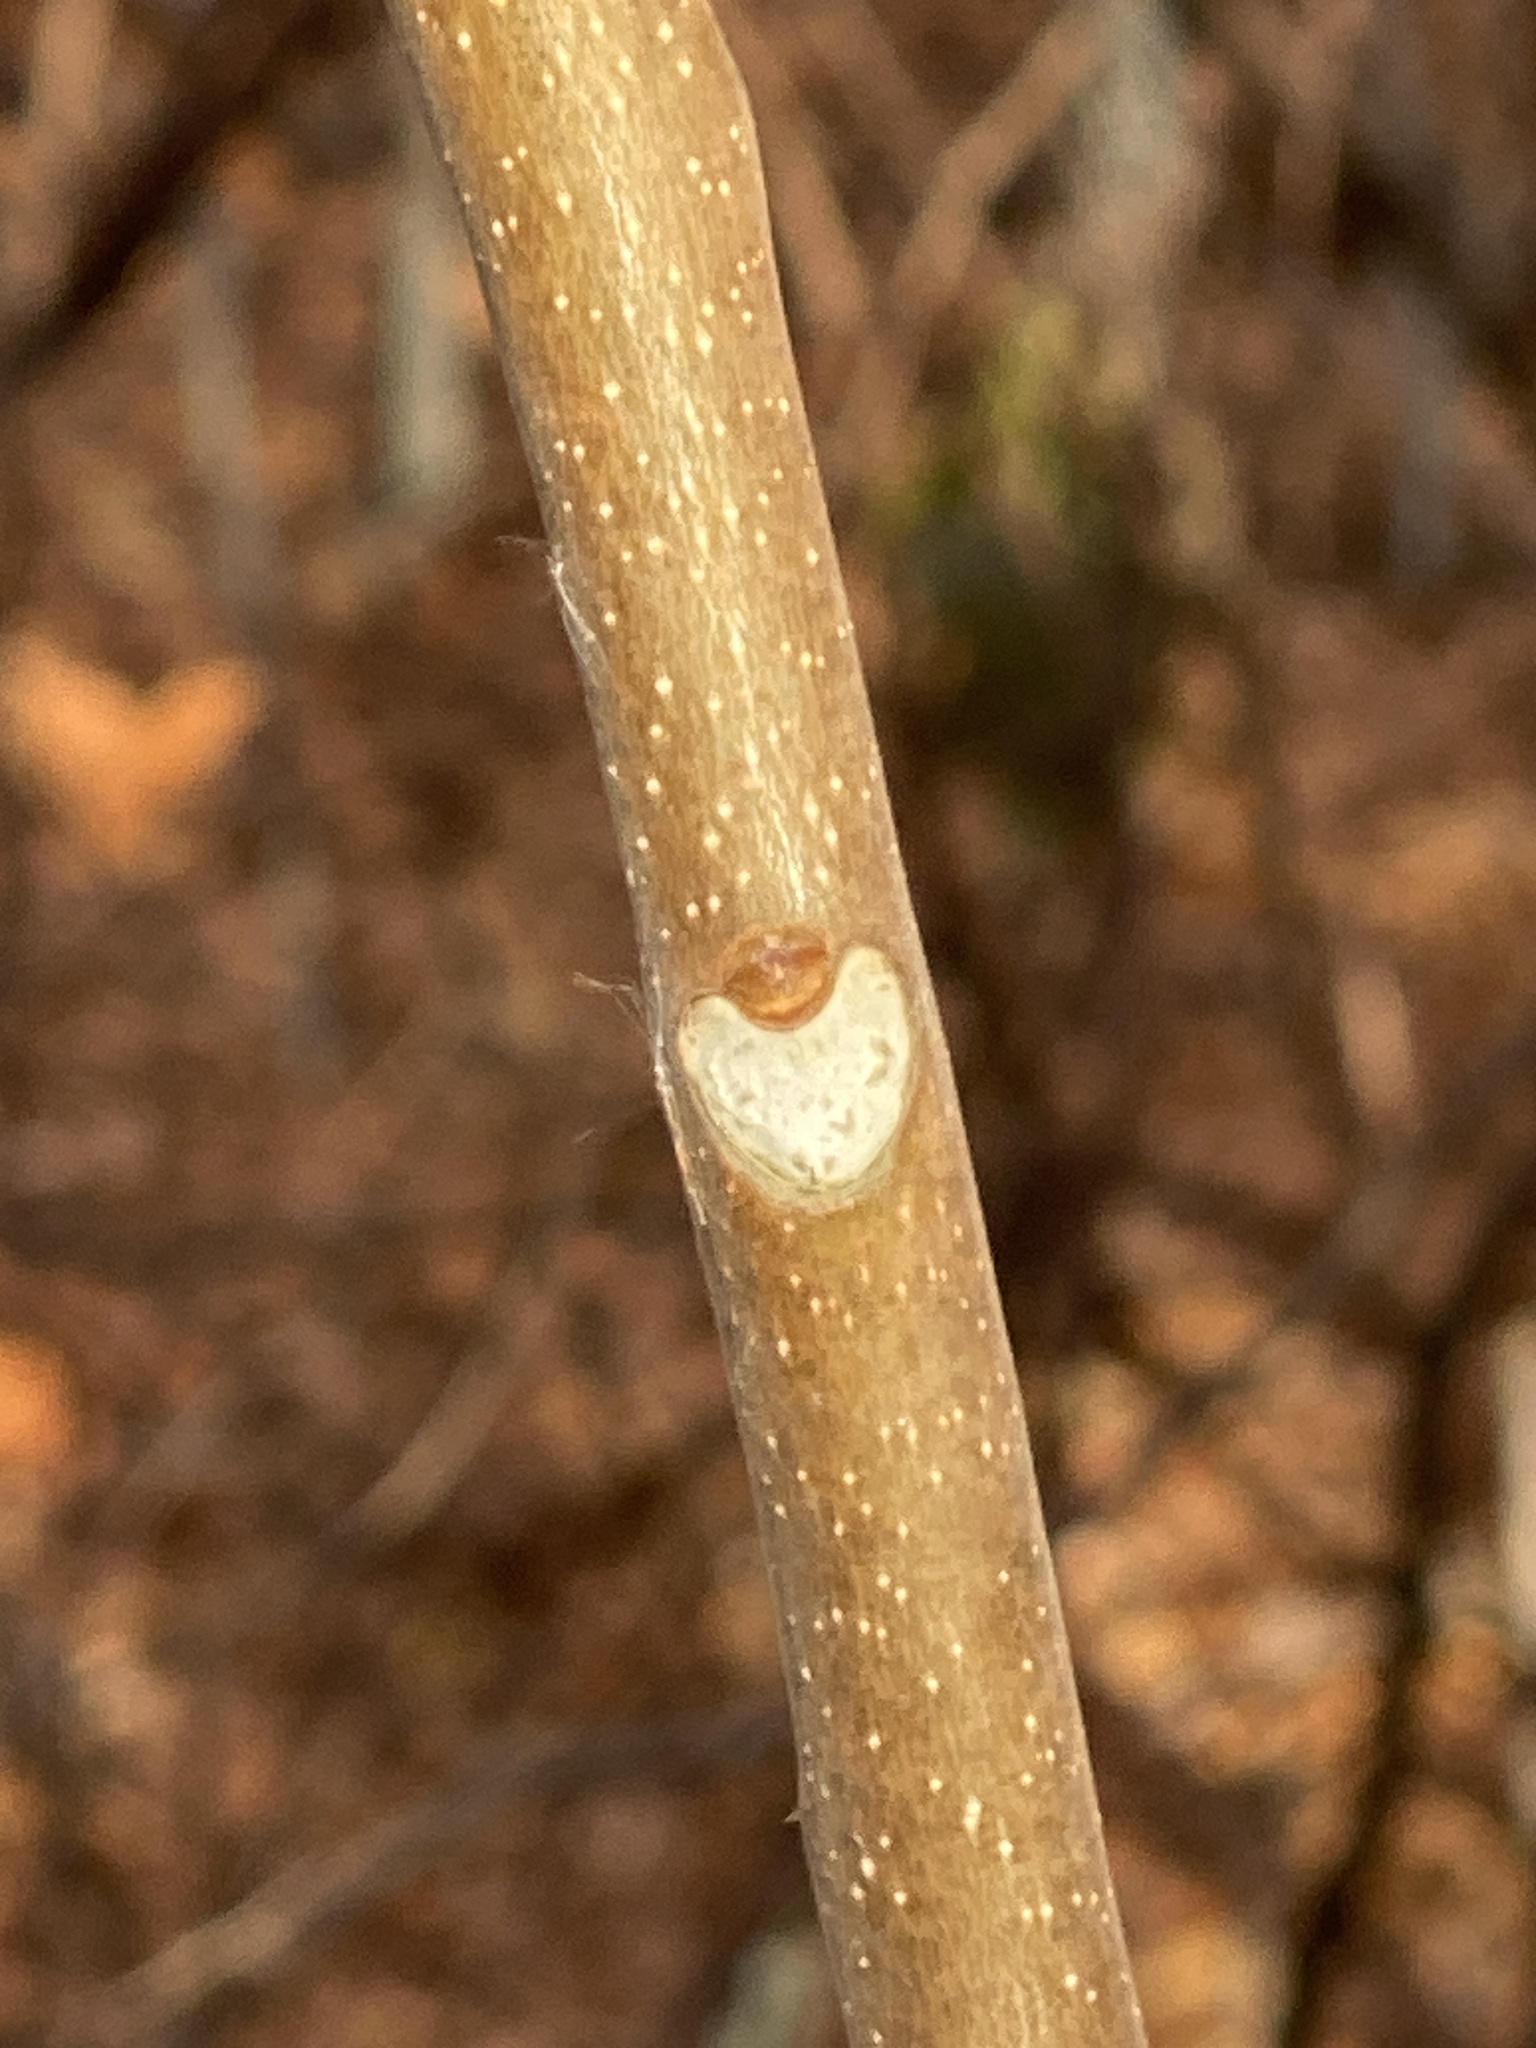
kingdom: Plantae
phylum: Tracheophyta
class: Magnoliopsida
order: Sapindales
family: Simaroubaceae
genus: Ailanthus
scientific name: Ailanthus altissima
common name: Tree-of-heaven
